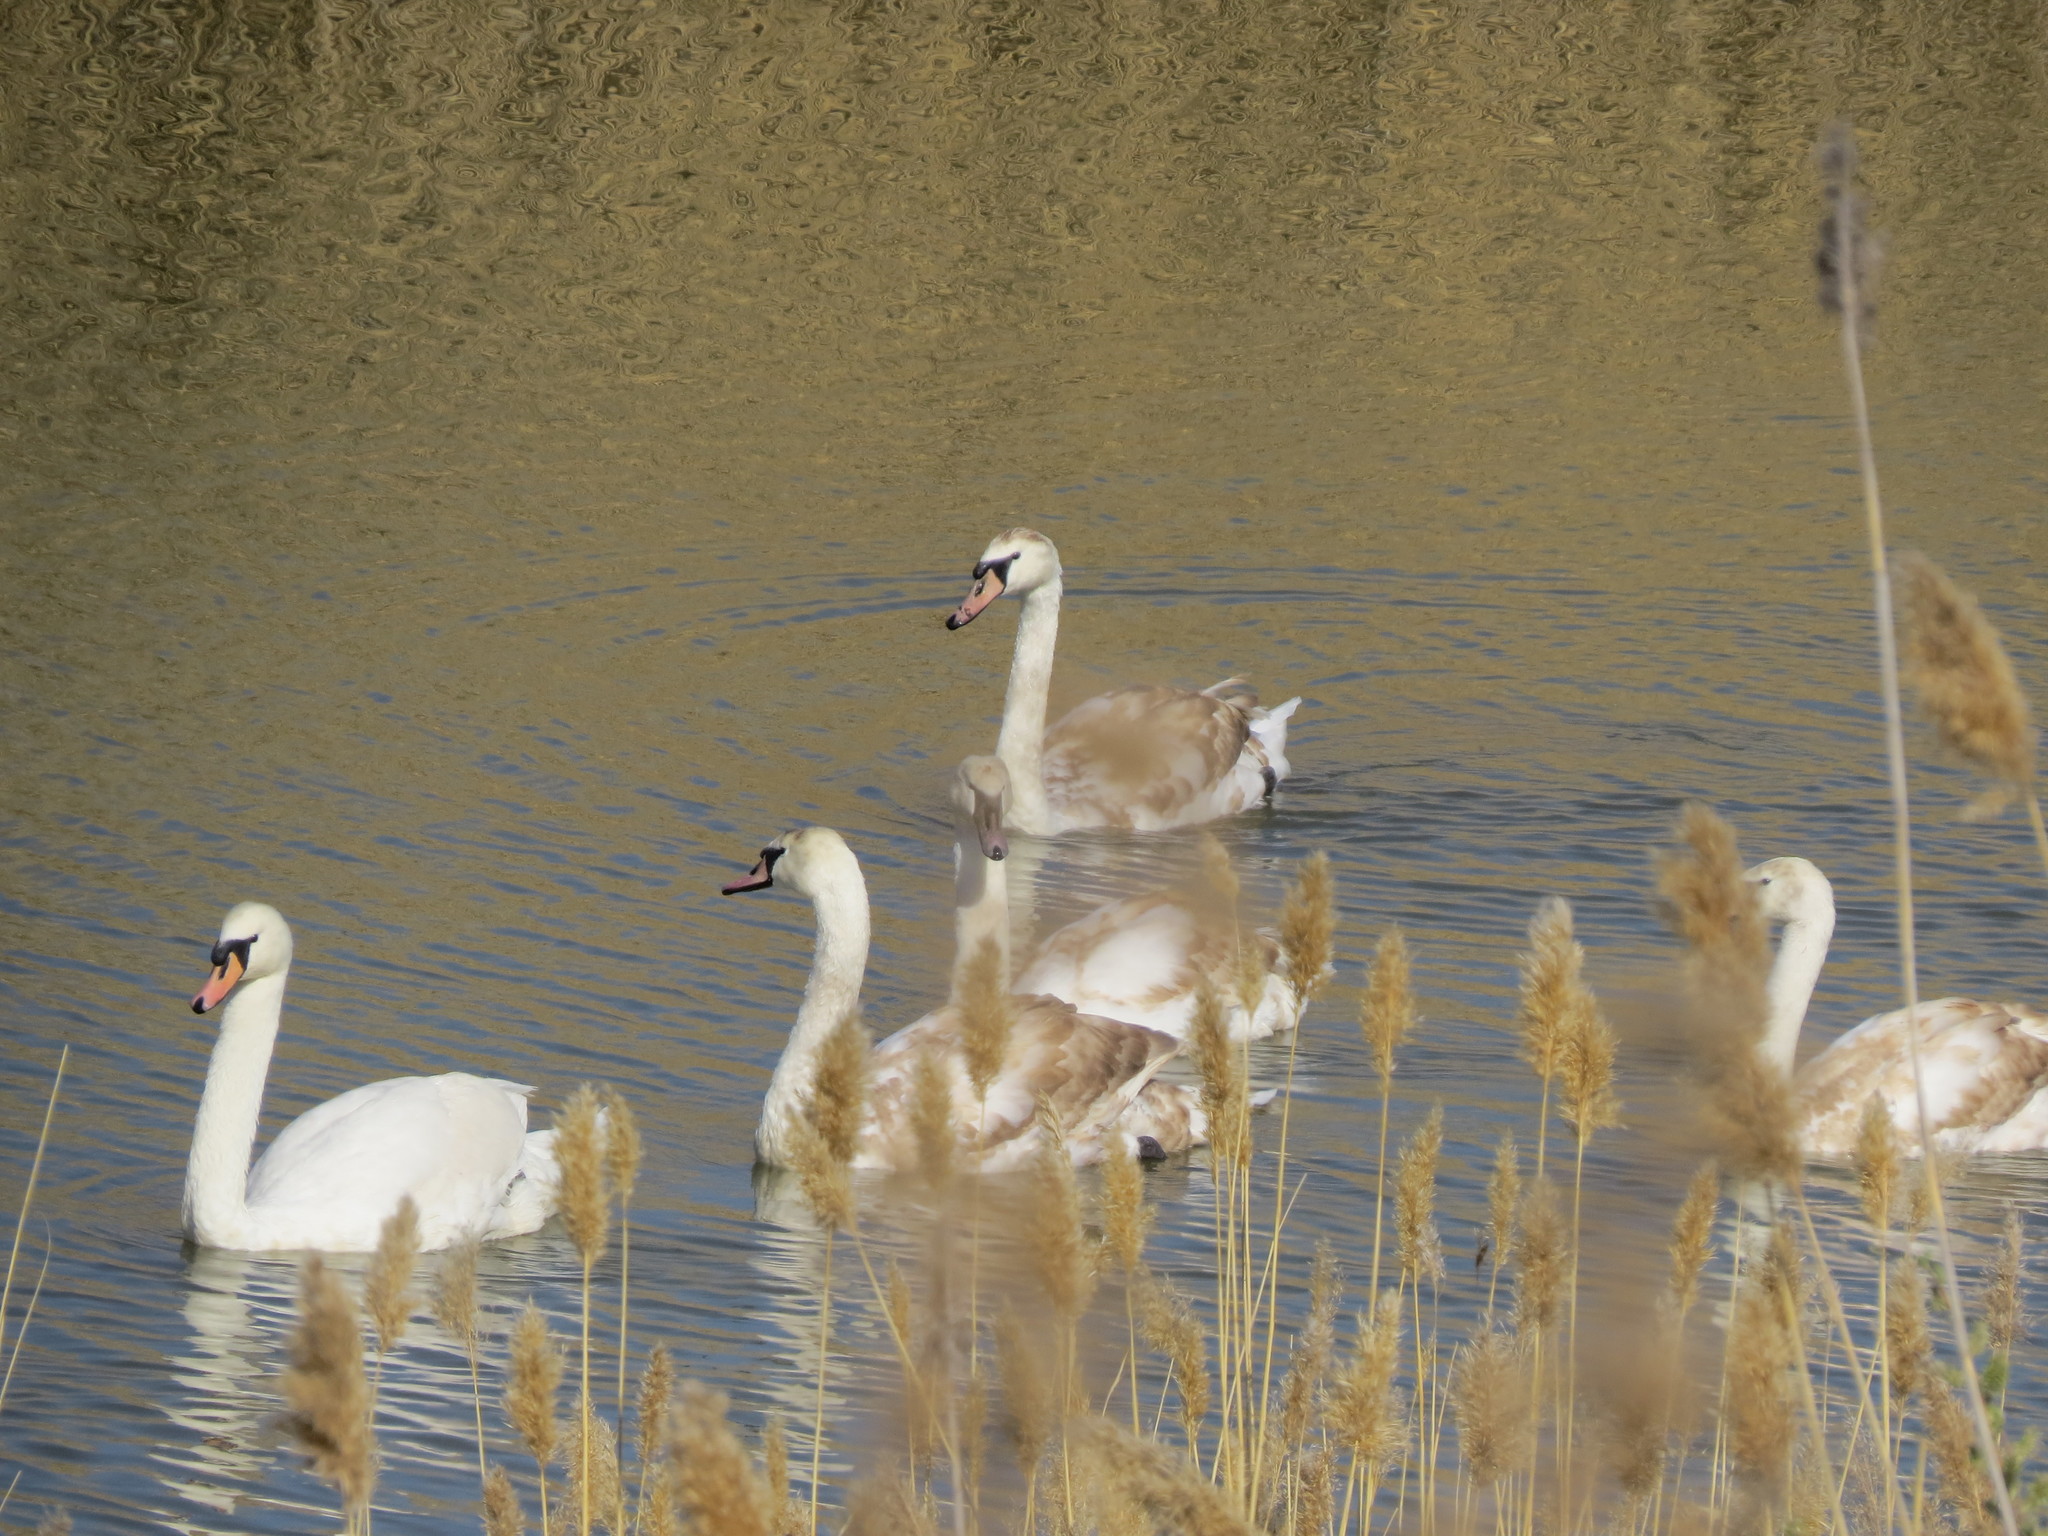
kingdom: Animalia
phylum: Chordata
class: Aves
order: Anseriformes
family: Anatidae
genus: Cygnus
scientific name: Cygnus olor
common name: Mute swan
